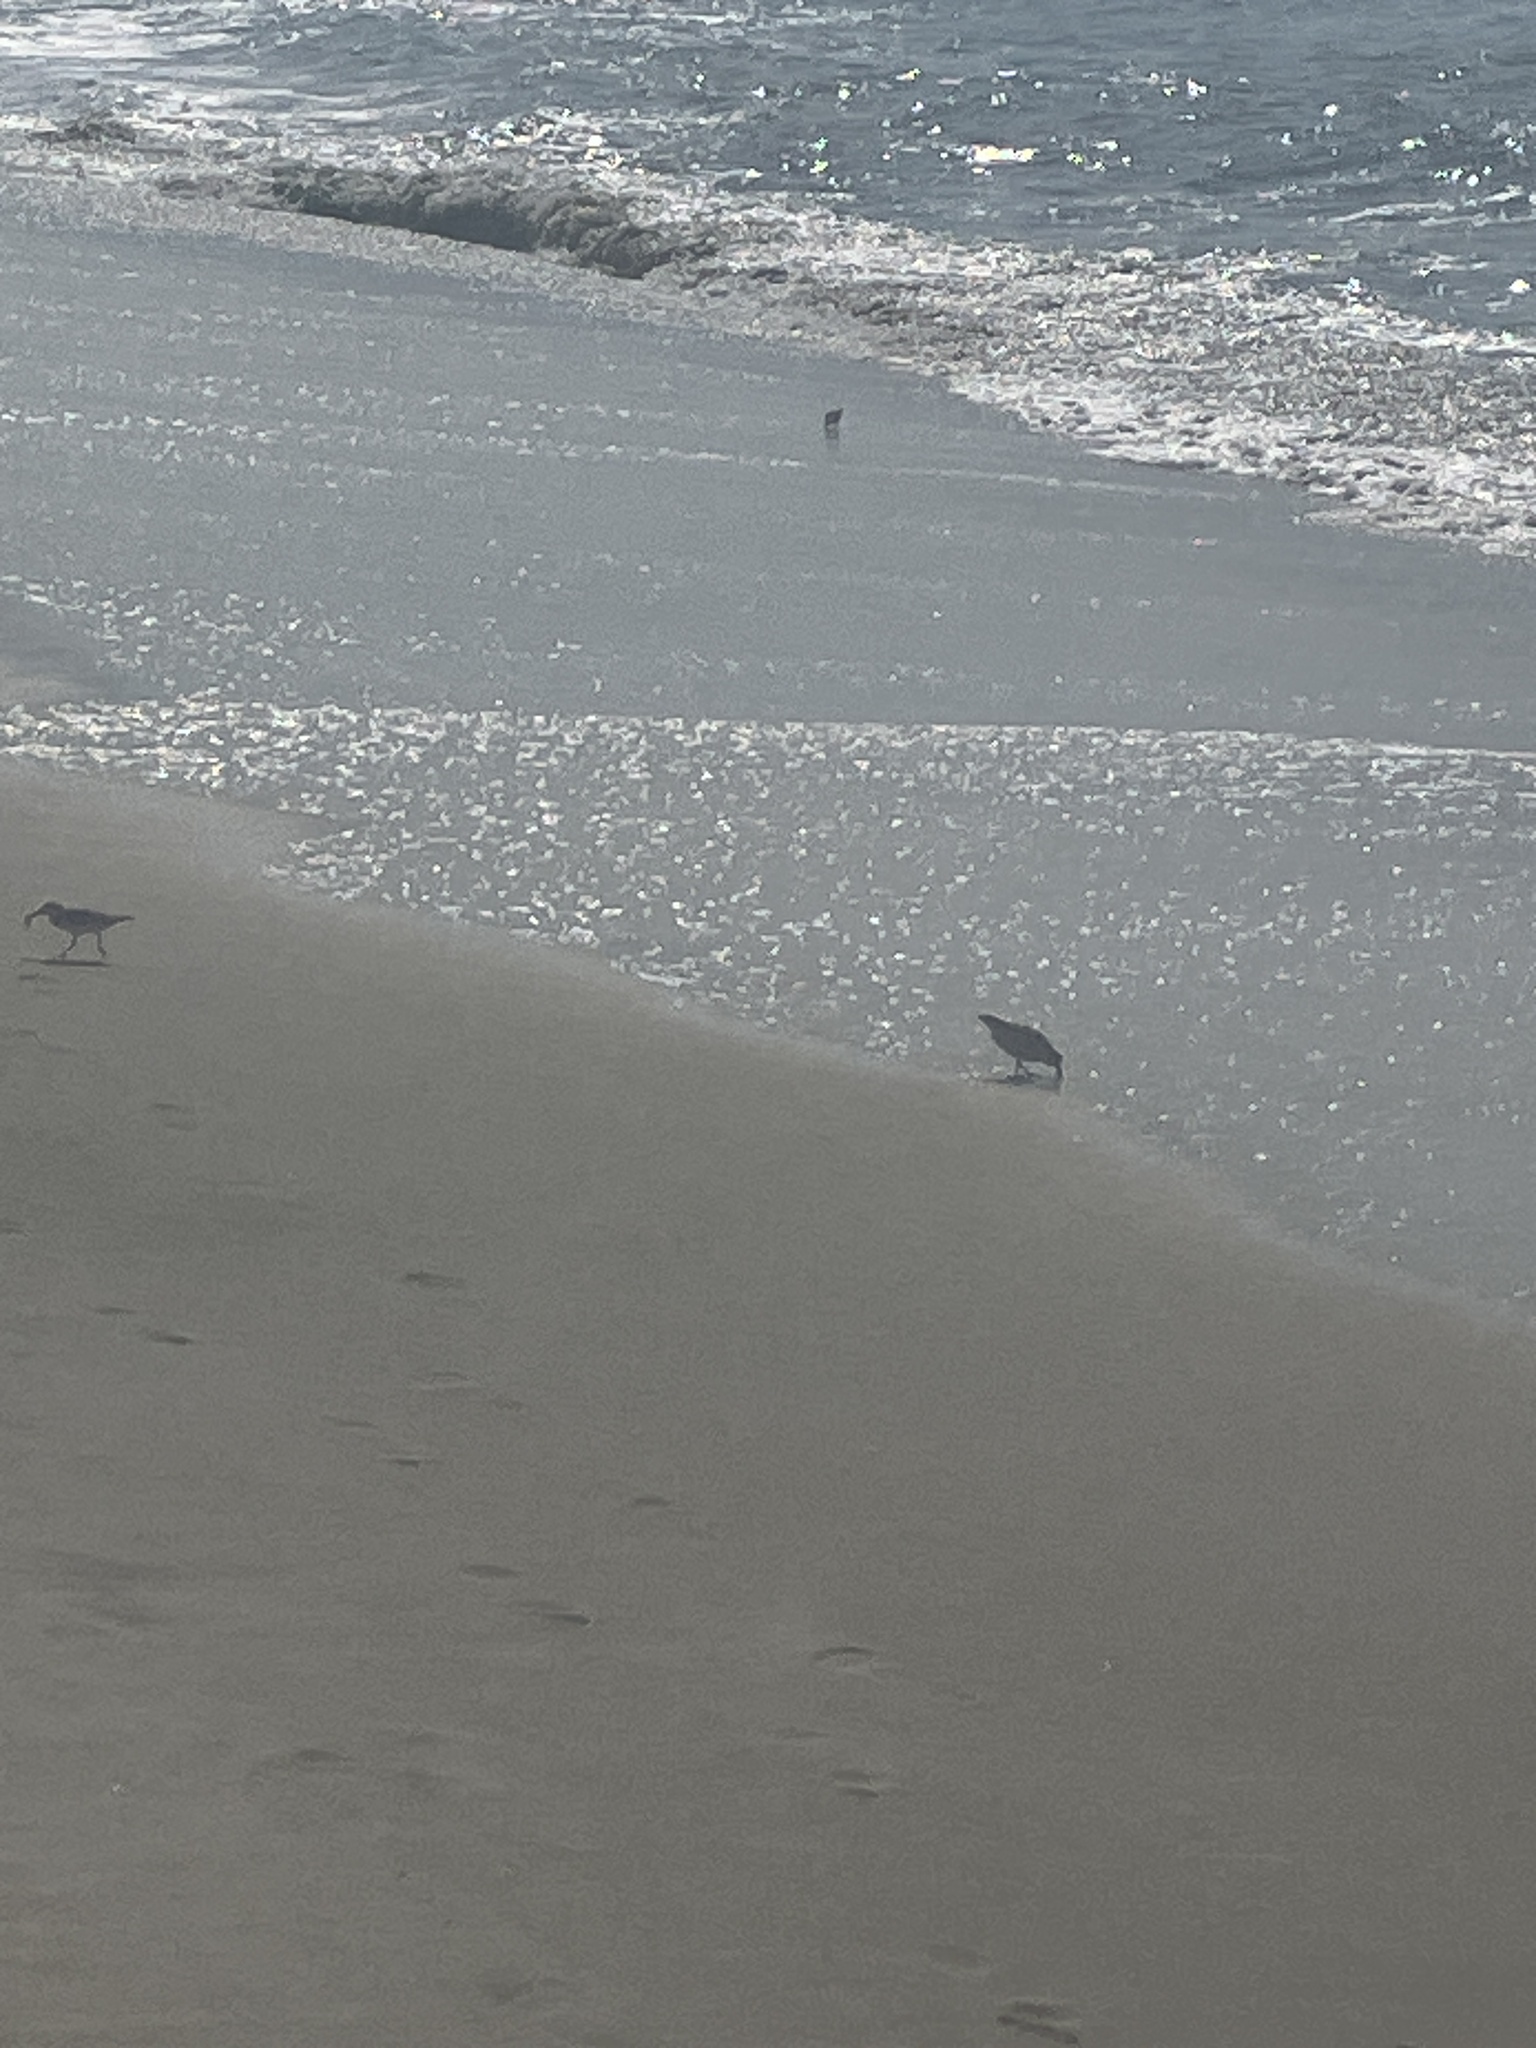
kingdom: Animalia
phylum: Chordata
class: Aves
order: Charadriiformes
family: Scolopacidae
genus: Calidris
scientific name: Calidris alba
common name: Sanderling
